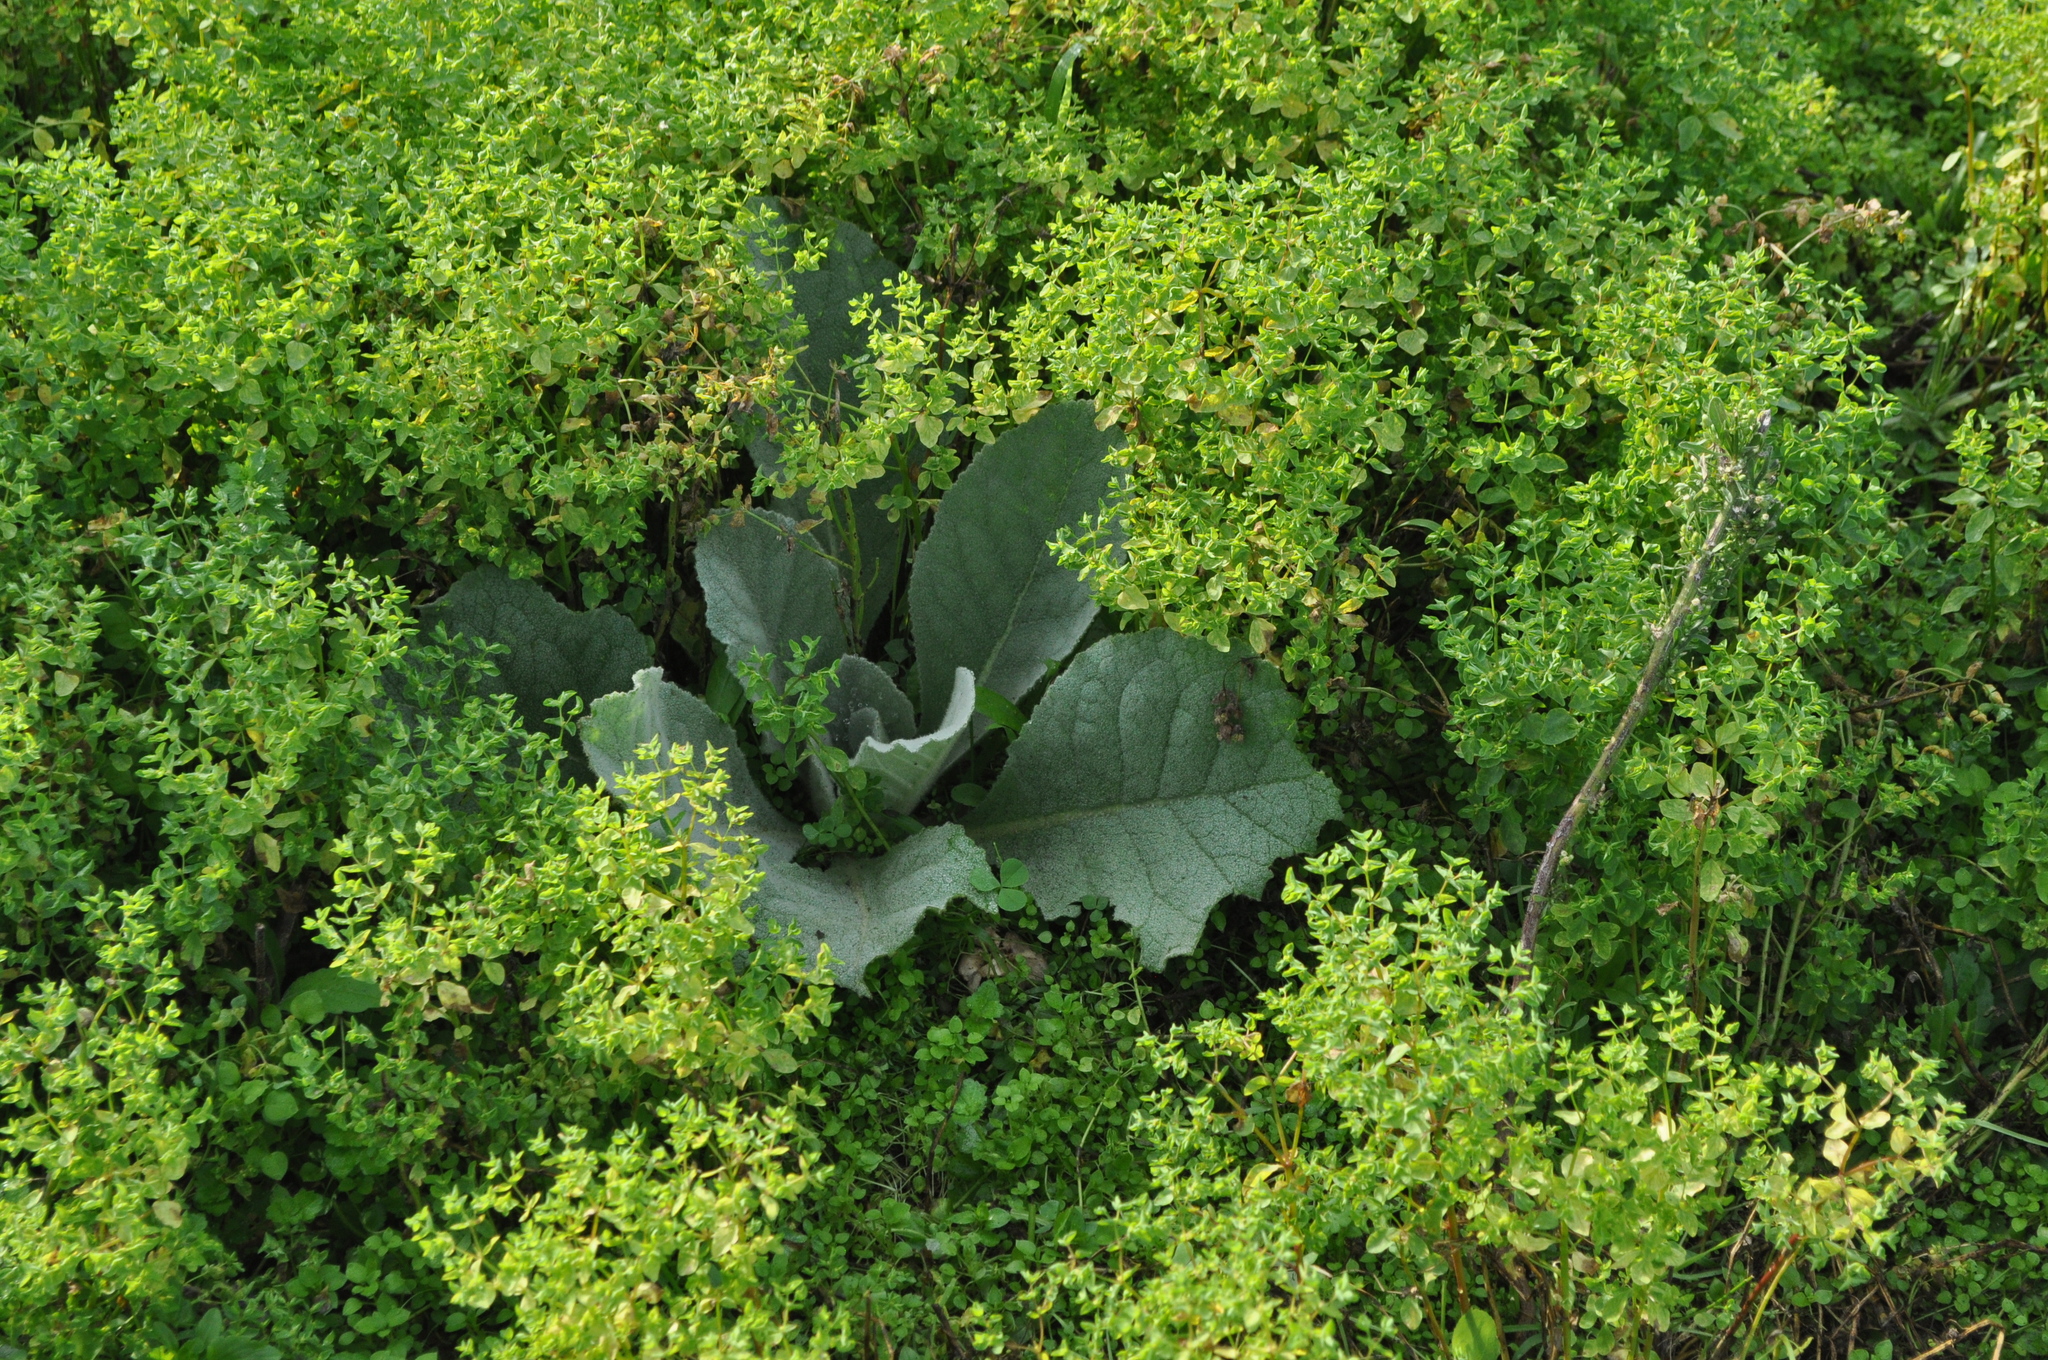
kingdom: Plantae
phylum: Tracheophyta
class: Magnoliopsida
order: Lamiales
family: Scrophulariaceae
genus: Verbascum
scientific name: Verbascum thapsus
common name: Common mullein
